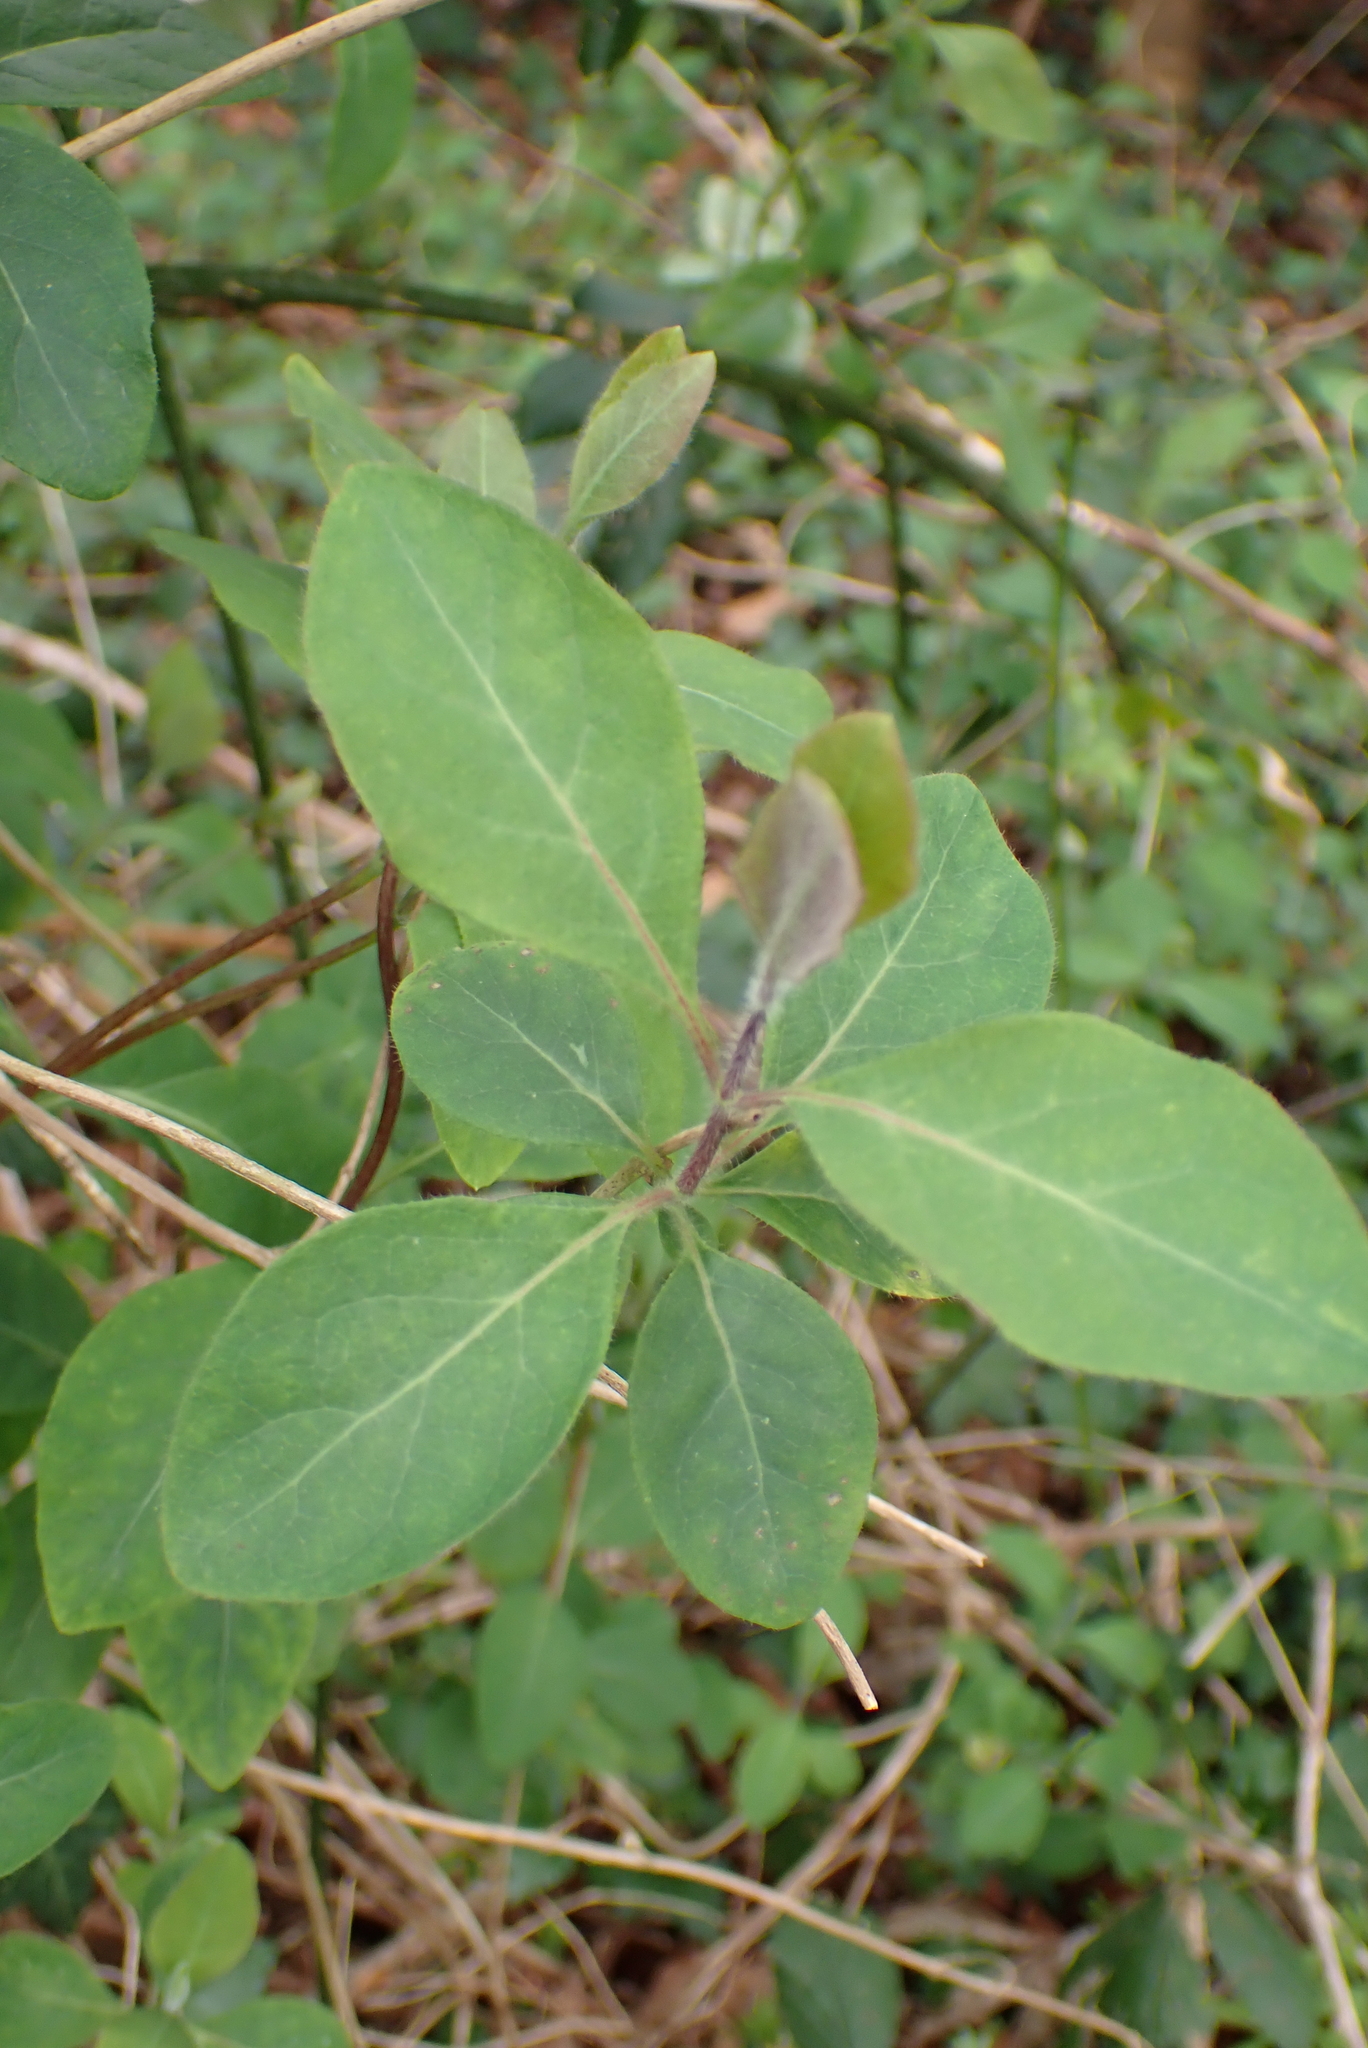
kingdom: Plantae
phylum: Tracheophyta
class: Magnoliopsida
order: Dipsacales
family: Caprifoliaceae
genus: Lonicera
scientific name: Lonicera periclymenum
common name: European honeysuckle
